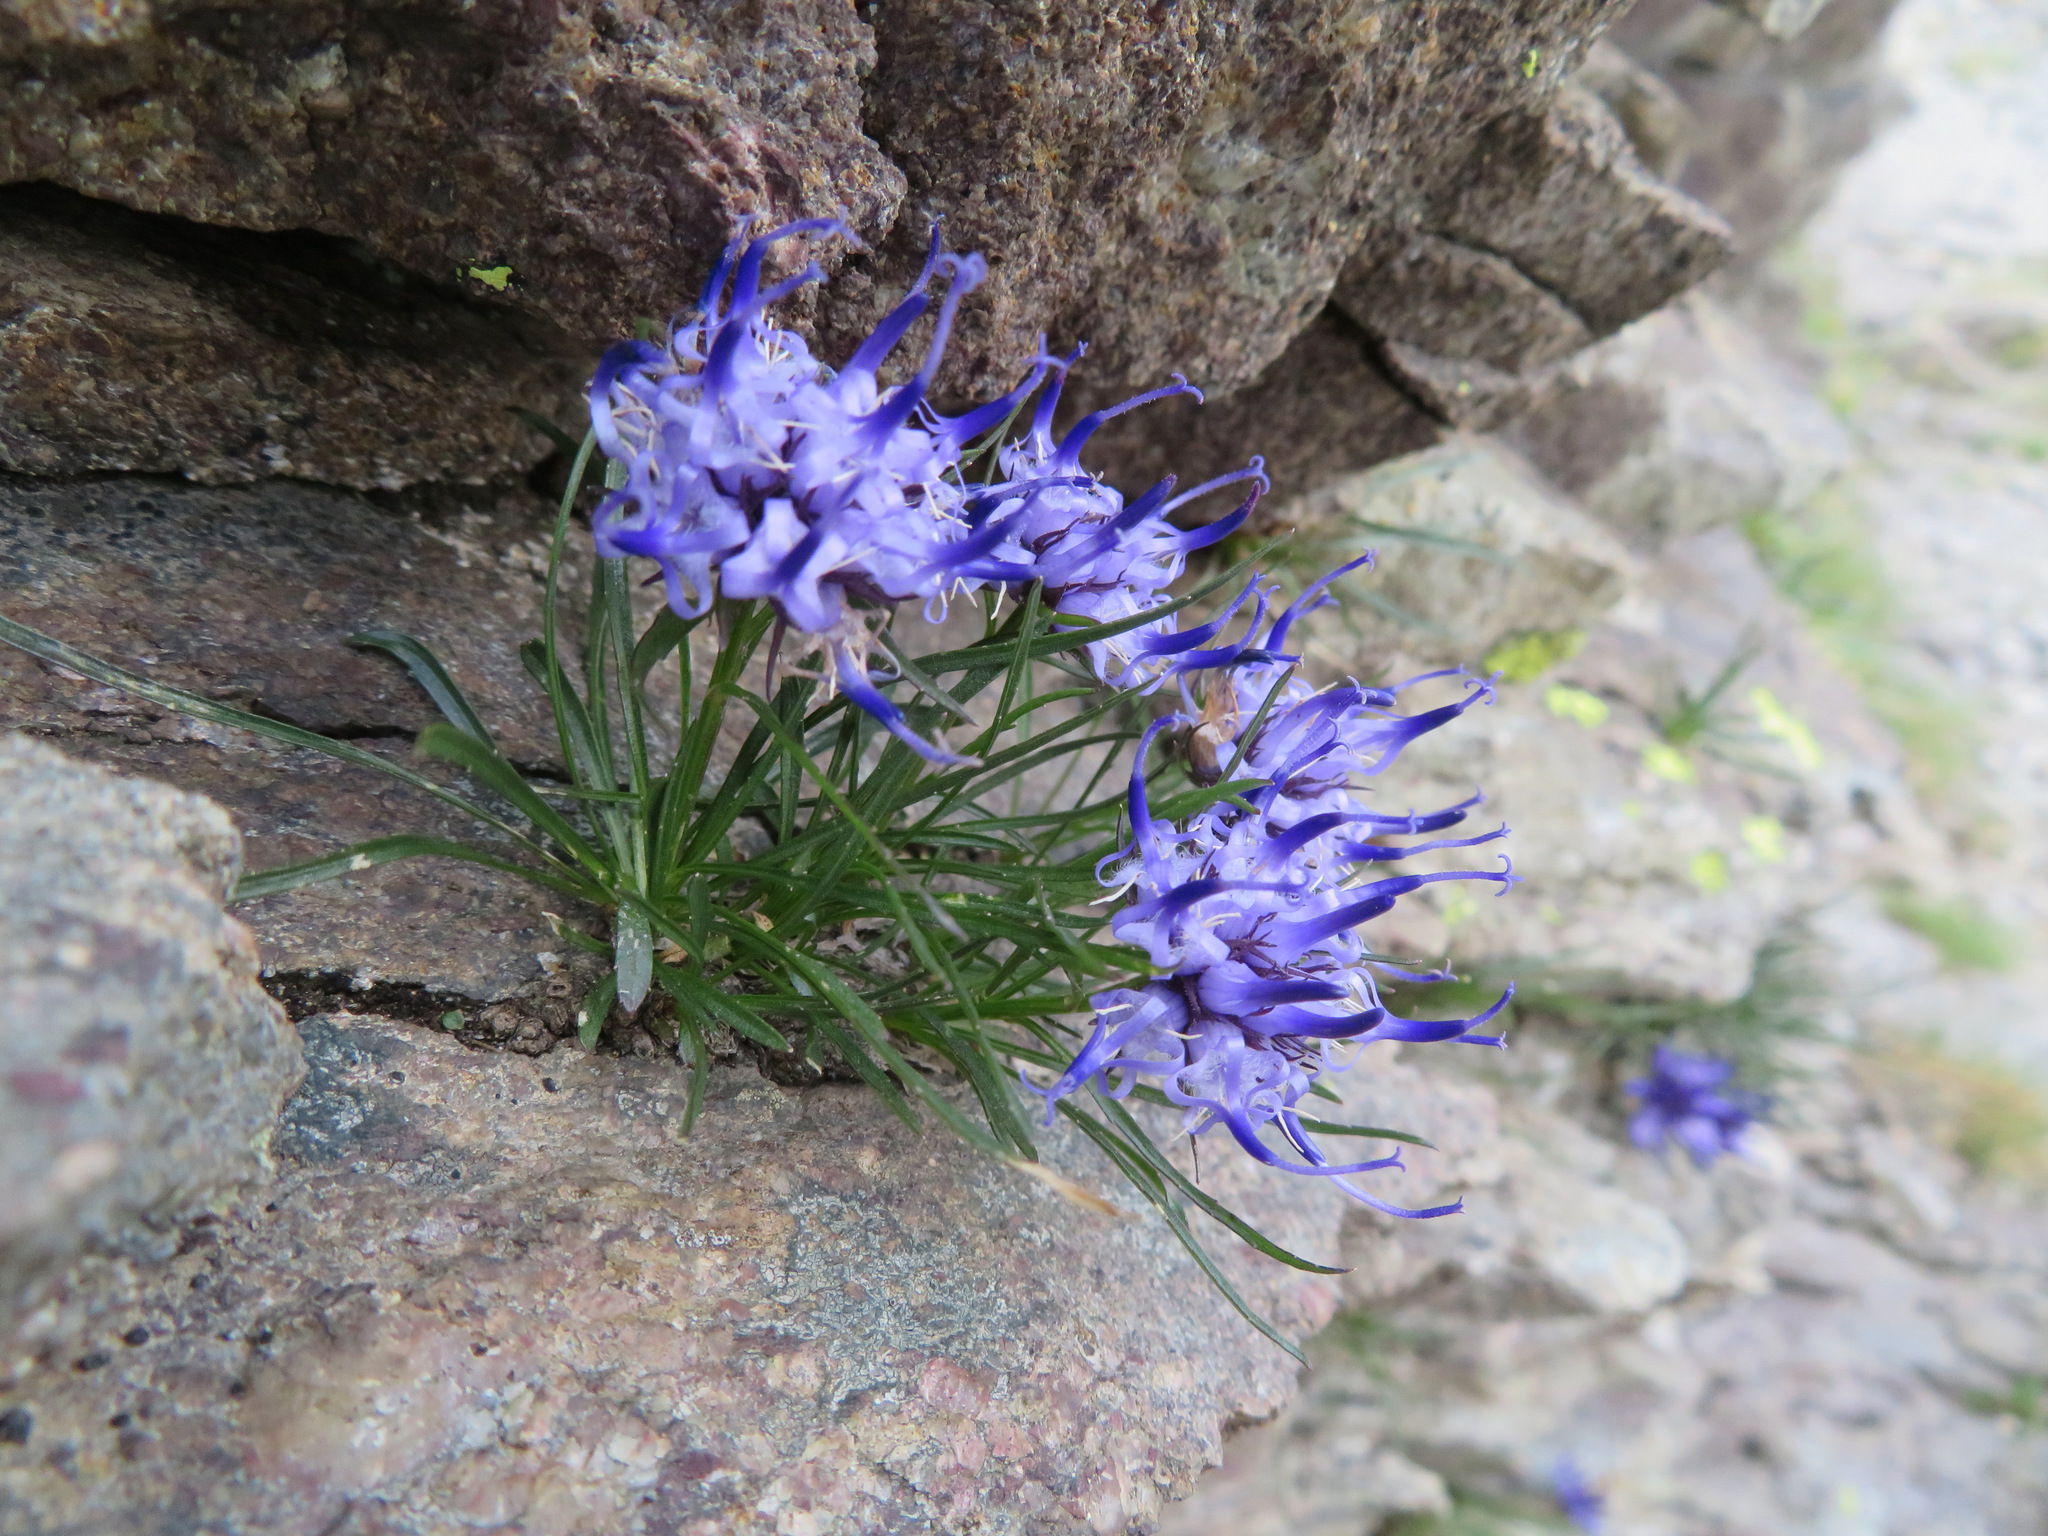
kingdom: Plantae
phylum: Tracheophyta
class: Magnoliopsida
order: Asterales
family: Campanulaceae
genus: Phyteuma
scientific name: Phyteuma hedraianthifolium
